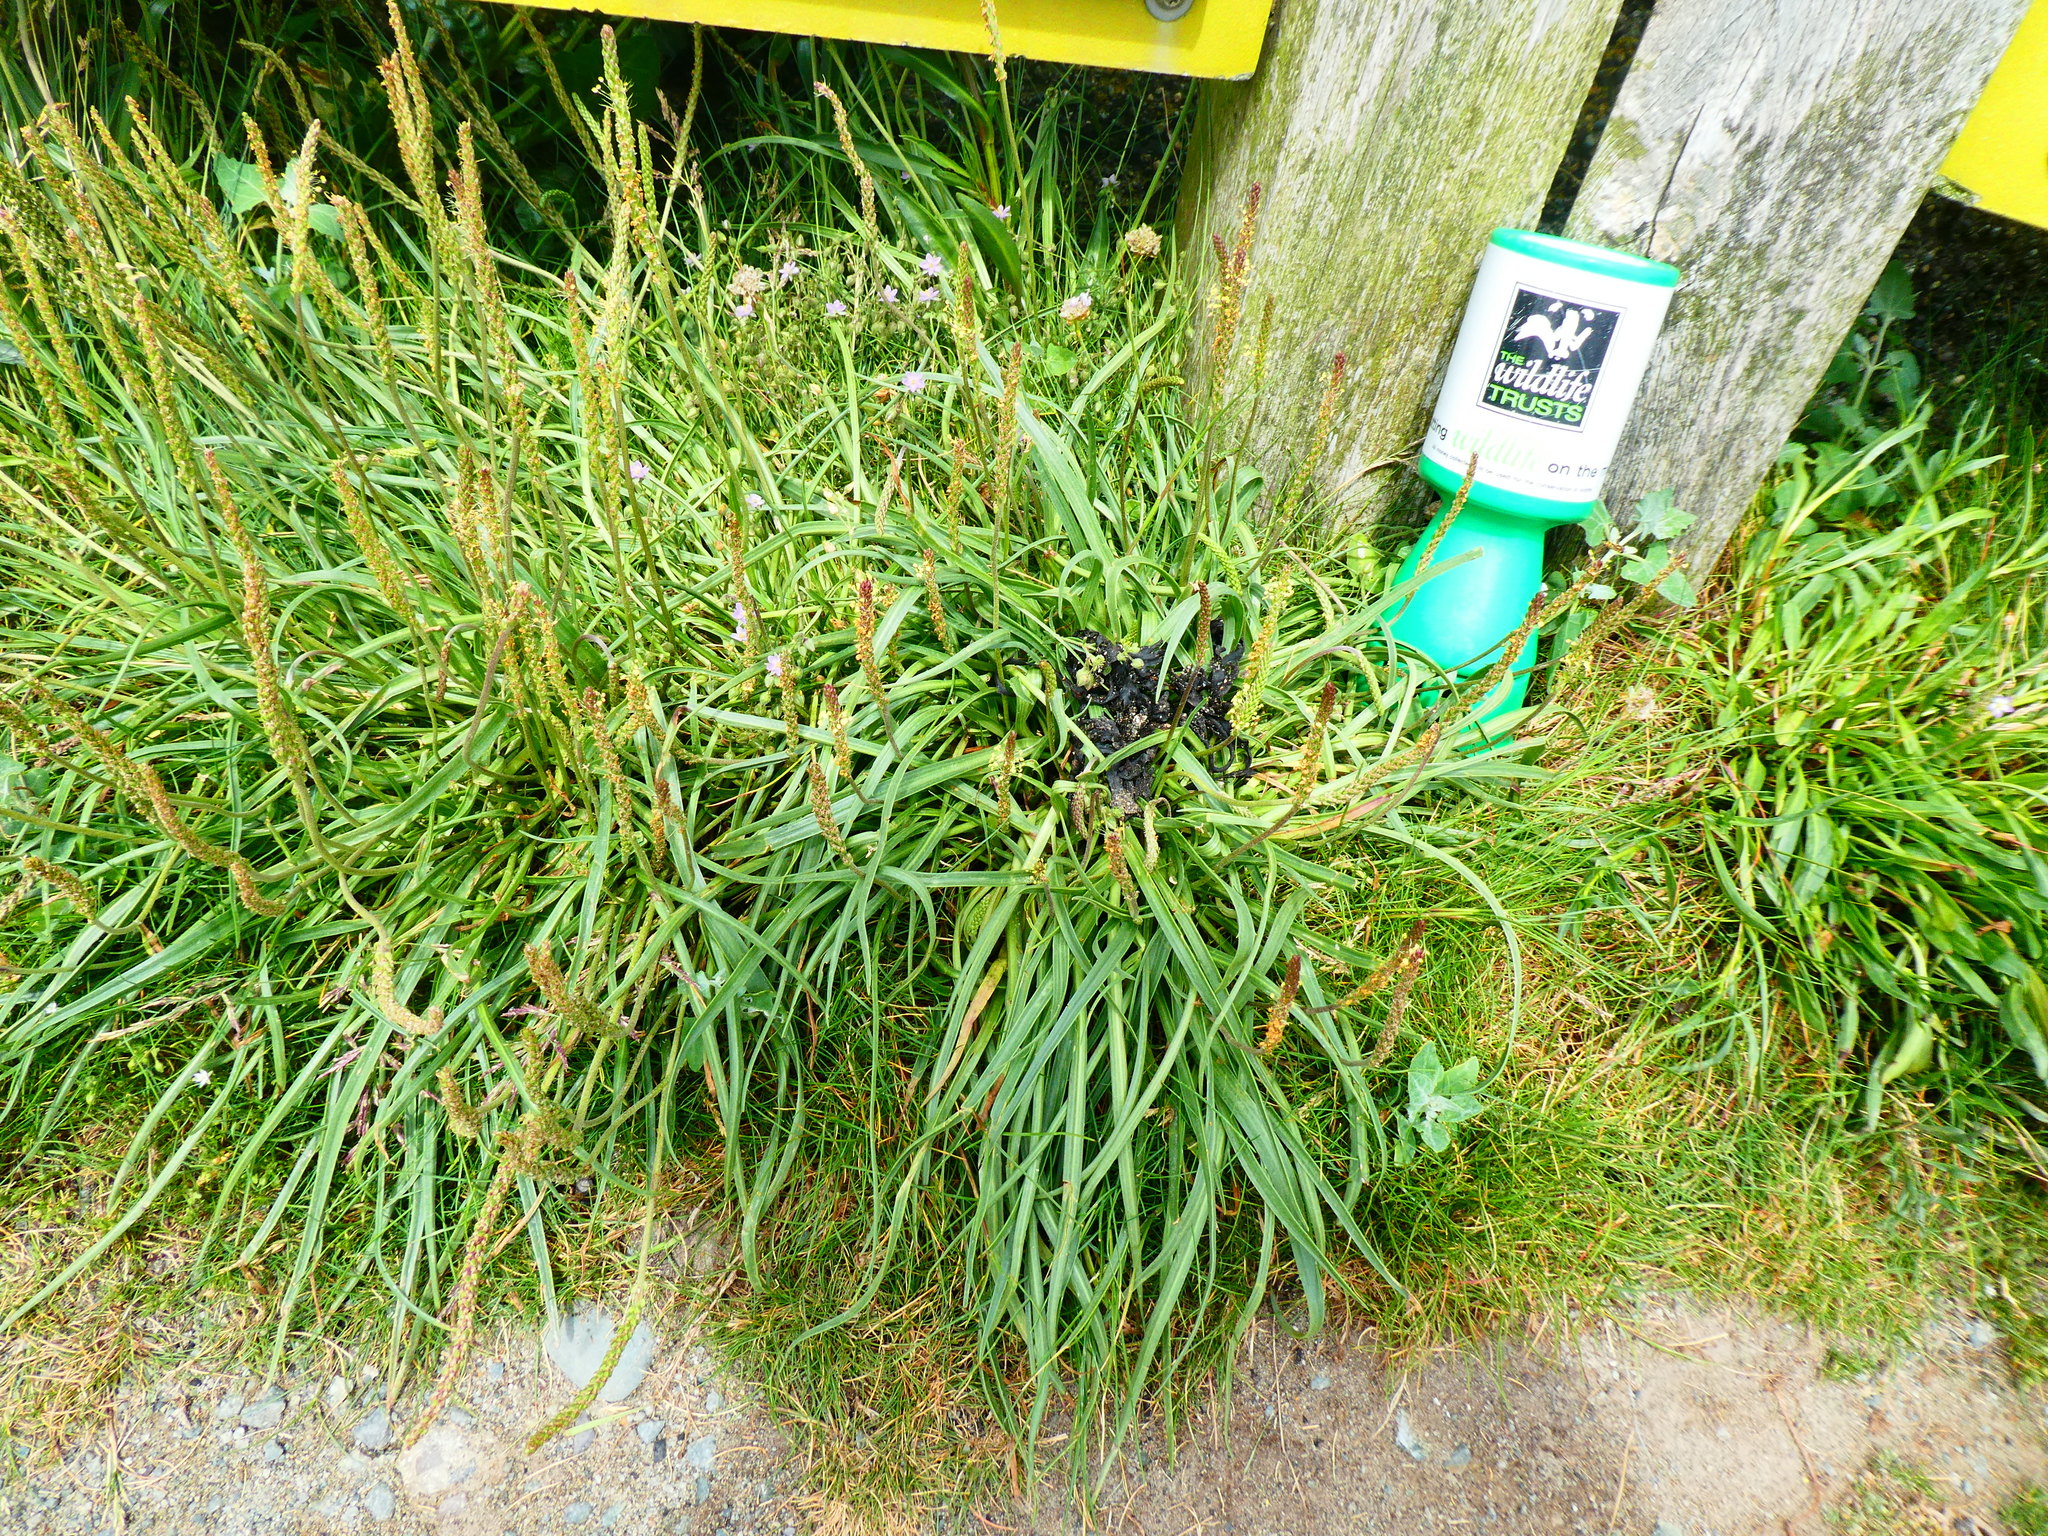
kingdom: Plantae
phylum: Tracheophyta
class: Magnoliopsida
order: Lamiales
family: Plantaginaceae
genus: Plantago
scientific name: Plantago maritima
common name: Sea plantain
